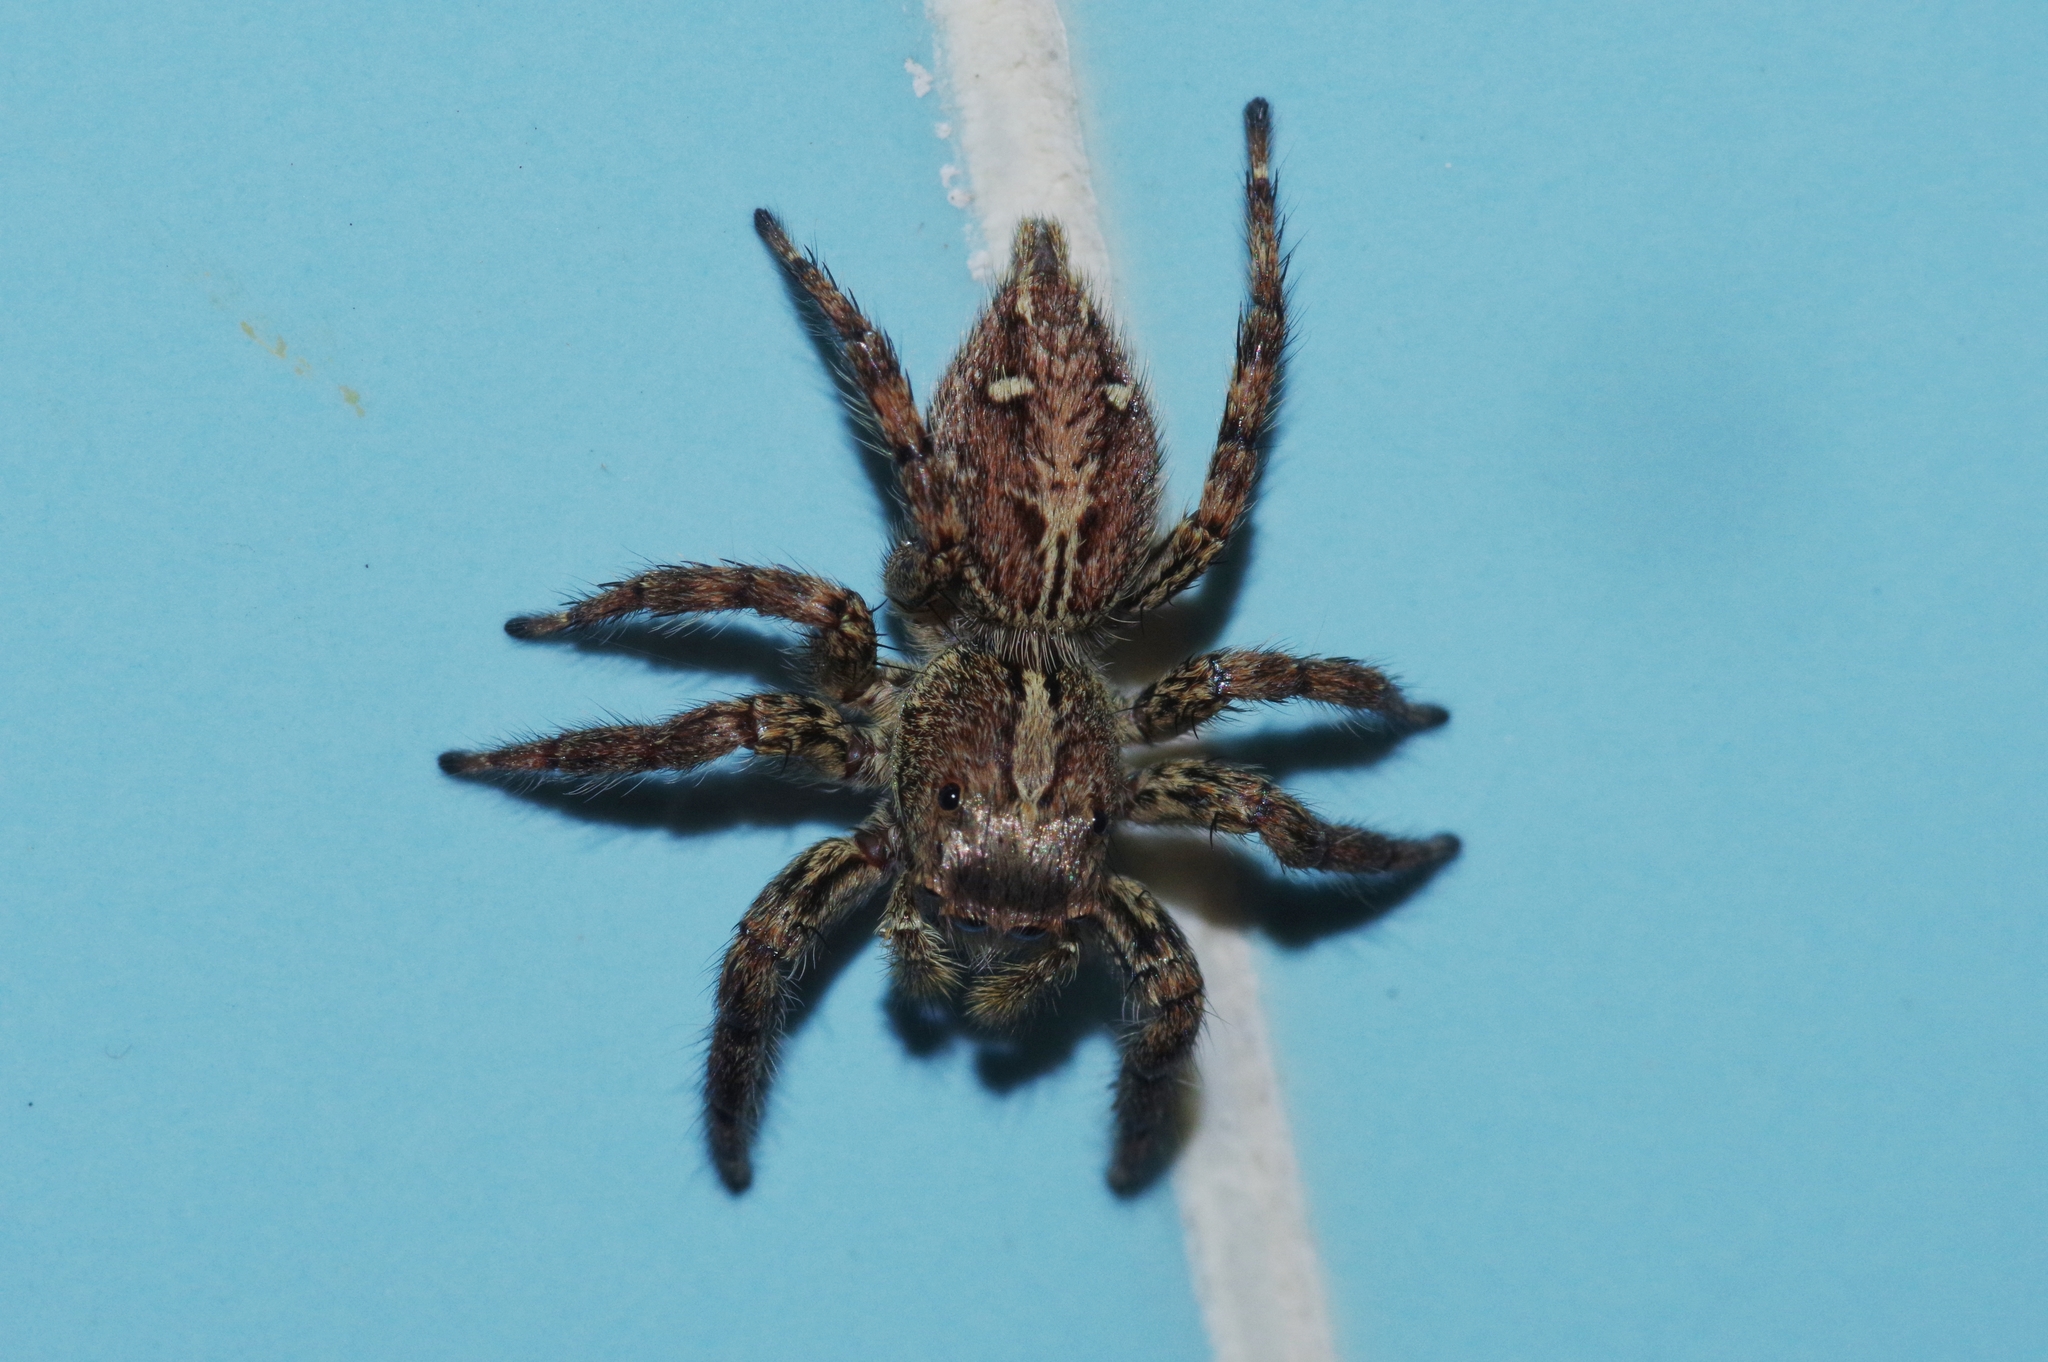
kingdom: Animalia
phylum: Arthropoda
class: Arachnida
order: Araneae
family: Salticidae
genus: Plexippus
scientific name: Plexippus paykulli
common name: Pantropical jumper
